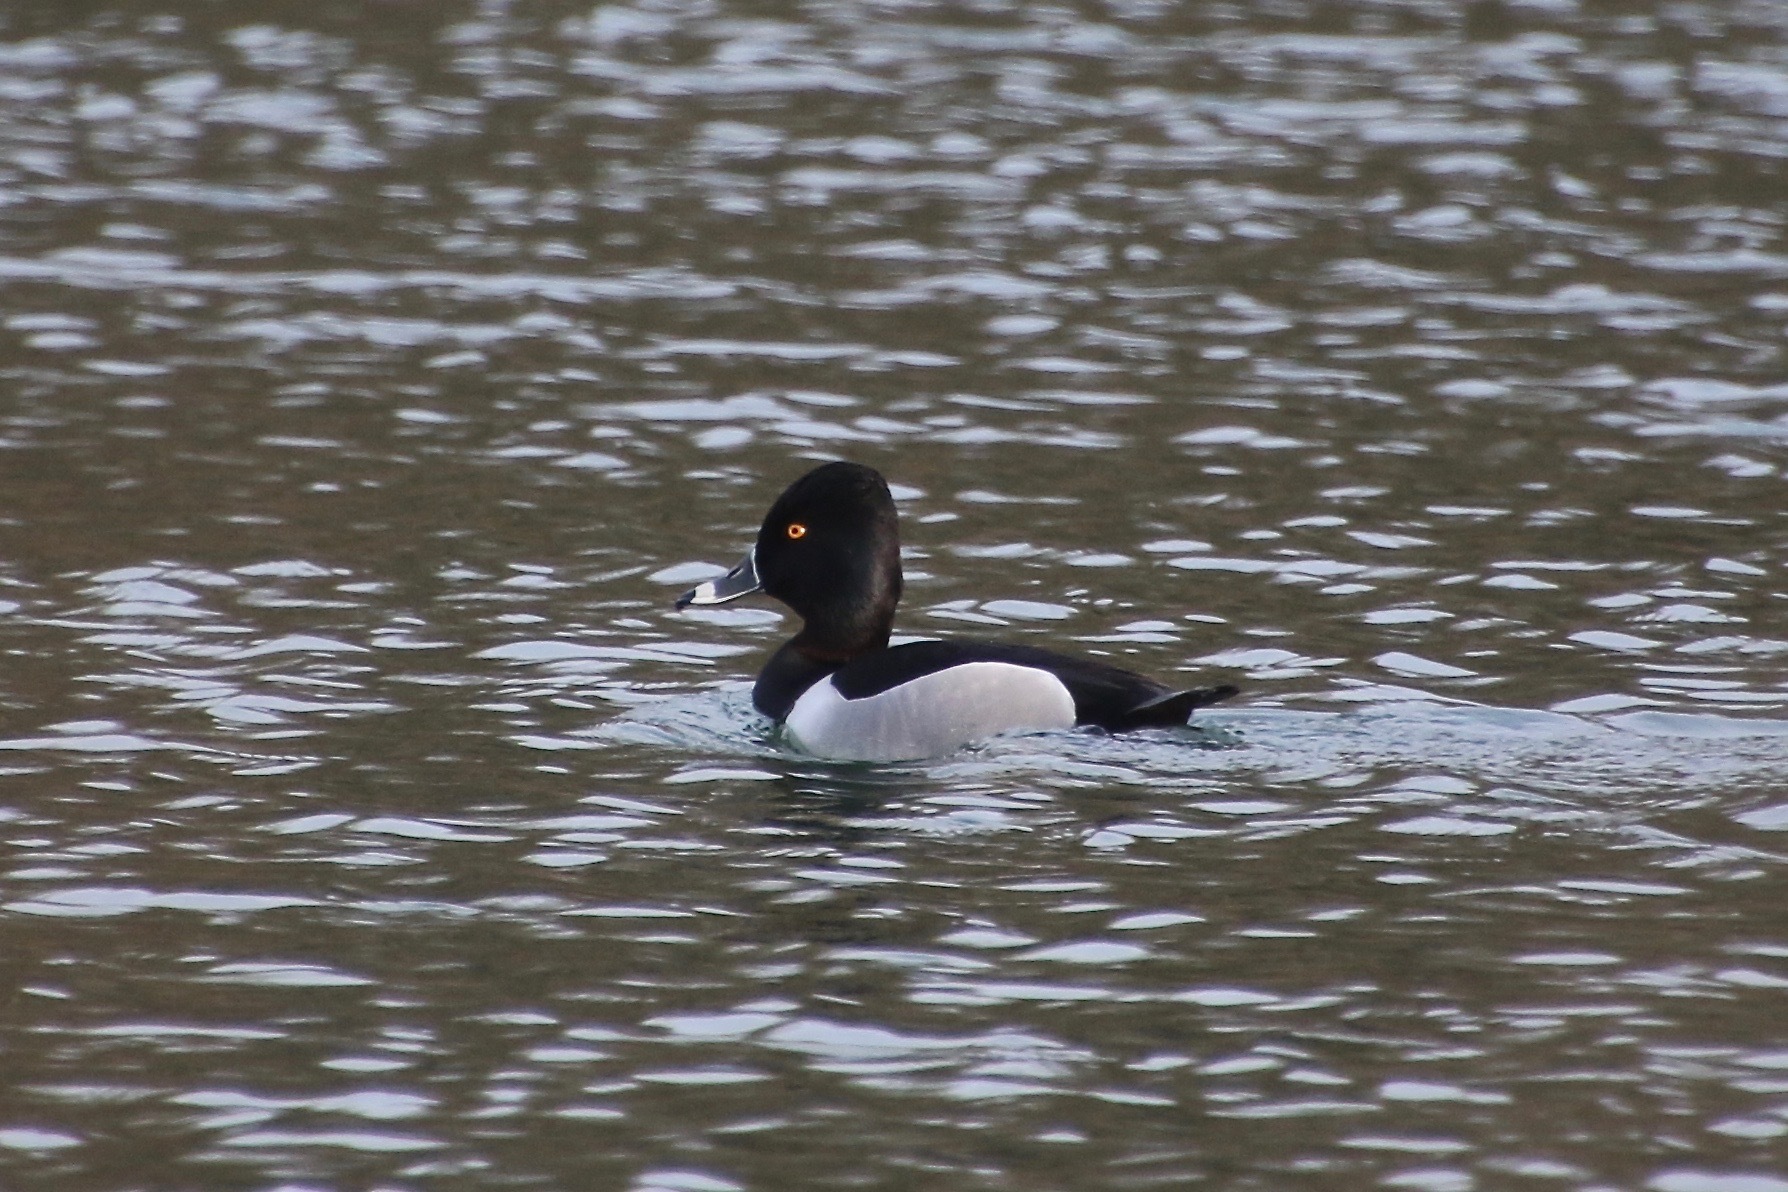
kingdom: Animalia
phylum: Chordata
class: Aves
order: Anseriformes
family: Anatidae
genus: Aythya
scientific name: Aythya collaris
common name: Ring-necked duck
